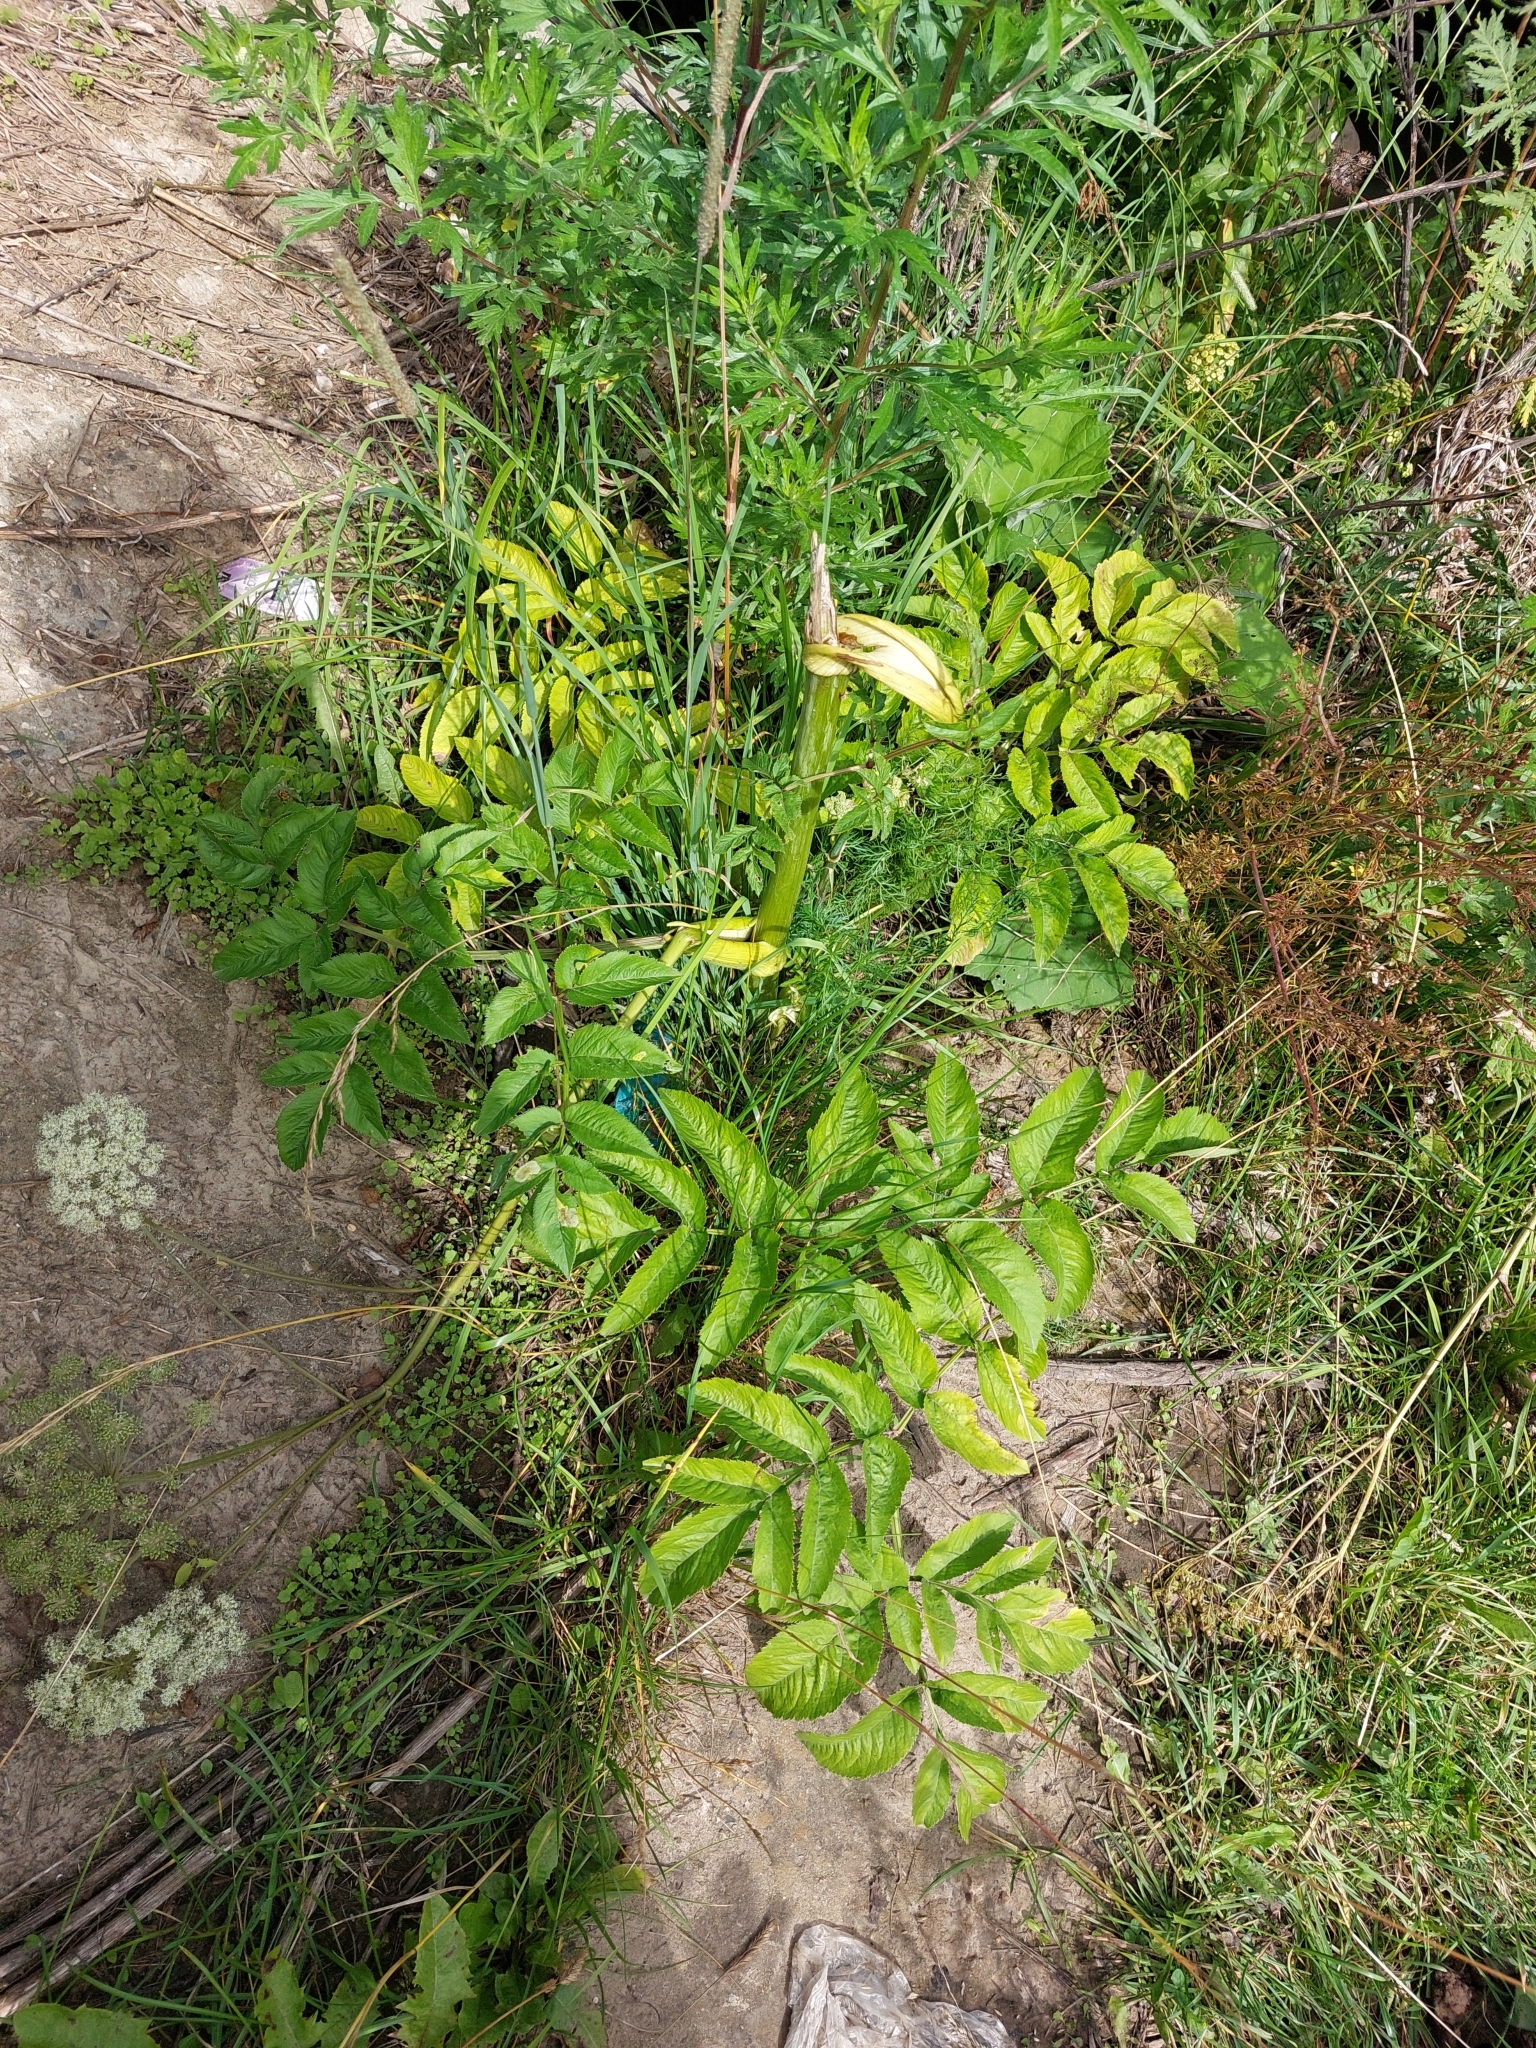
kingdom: Plantae
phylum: Tracheophyta
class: Magnoliopsida
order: Apiales
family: Apiaceae
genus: Angelica
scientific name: Angelica sylvestris
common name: Wild angelica
